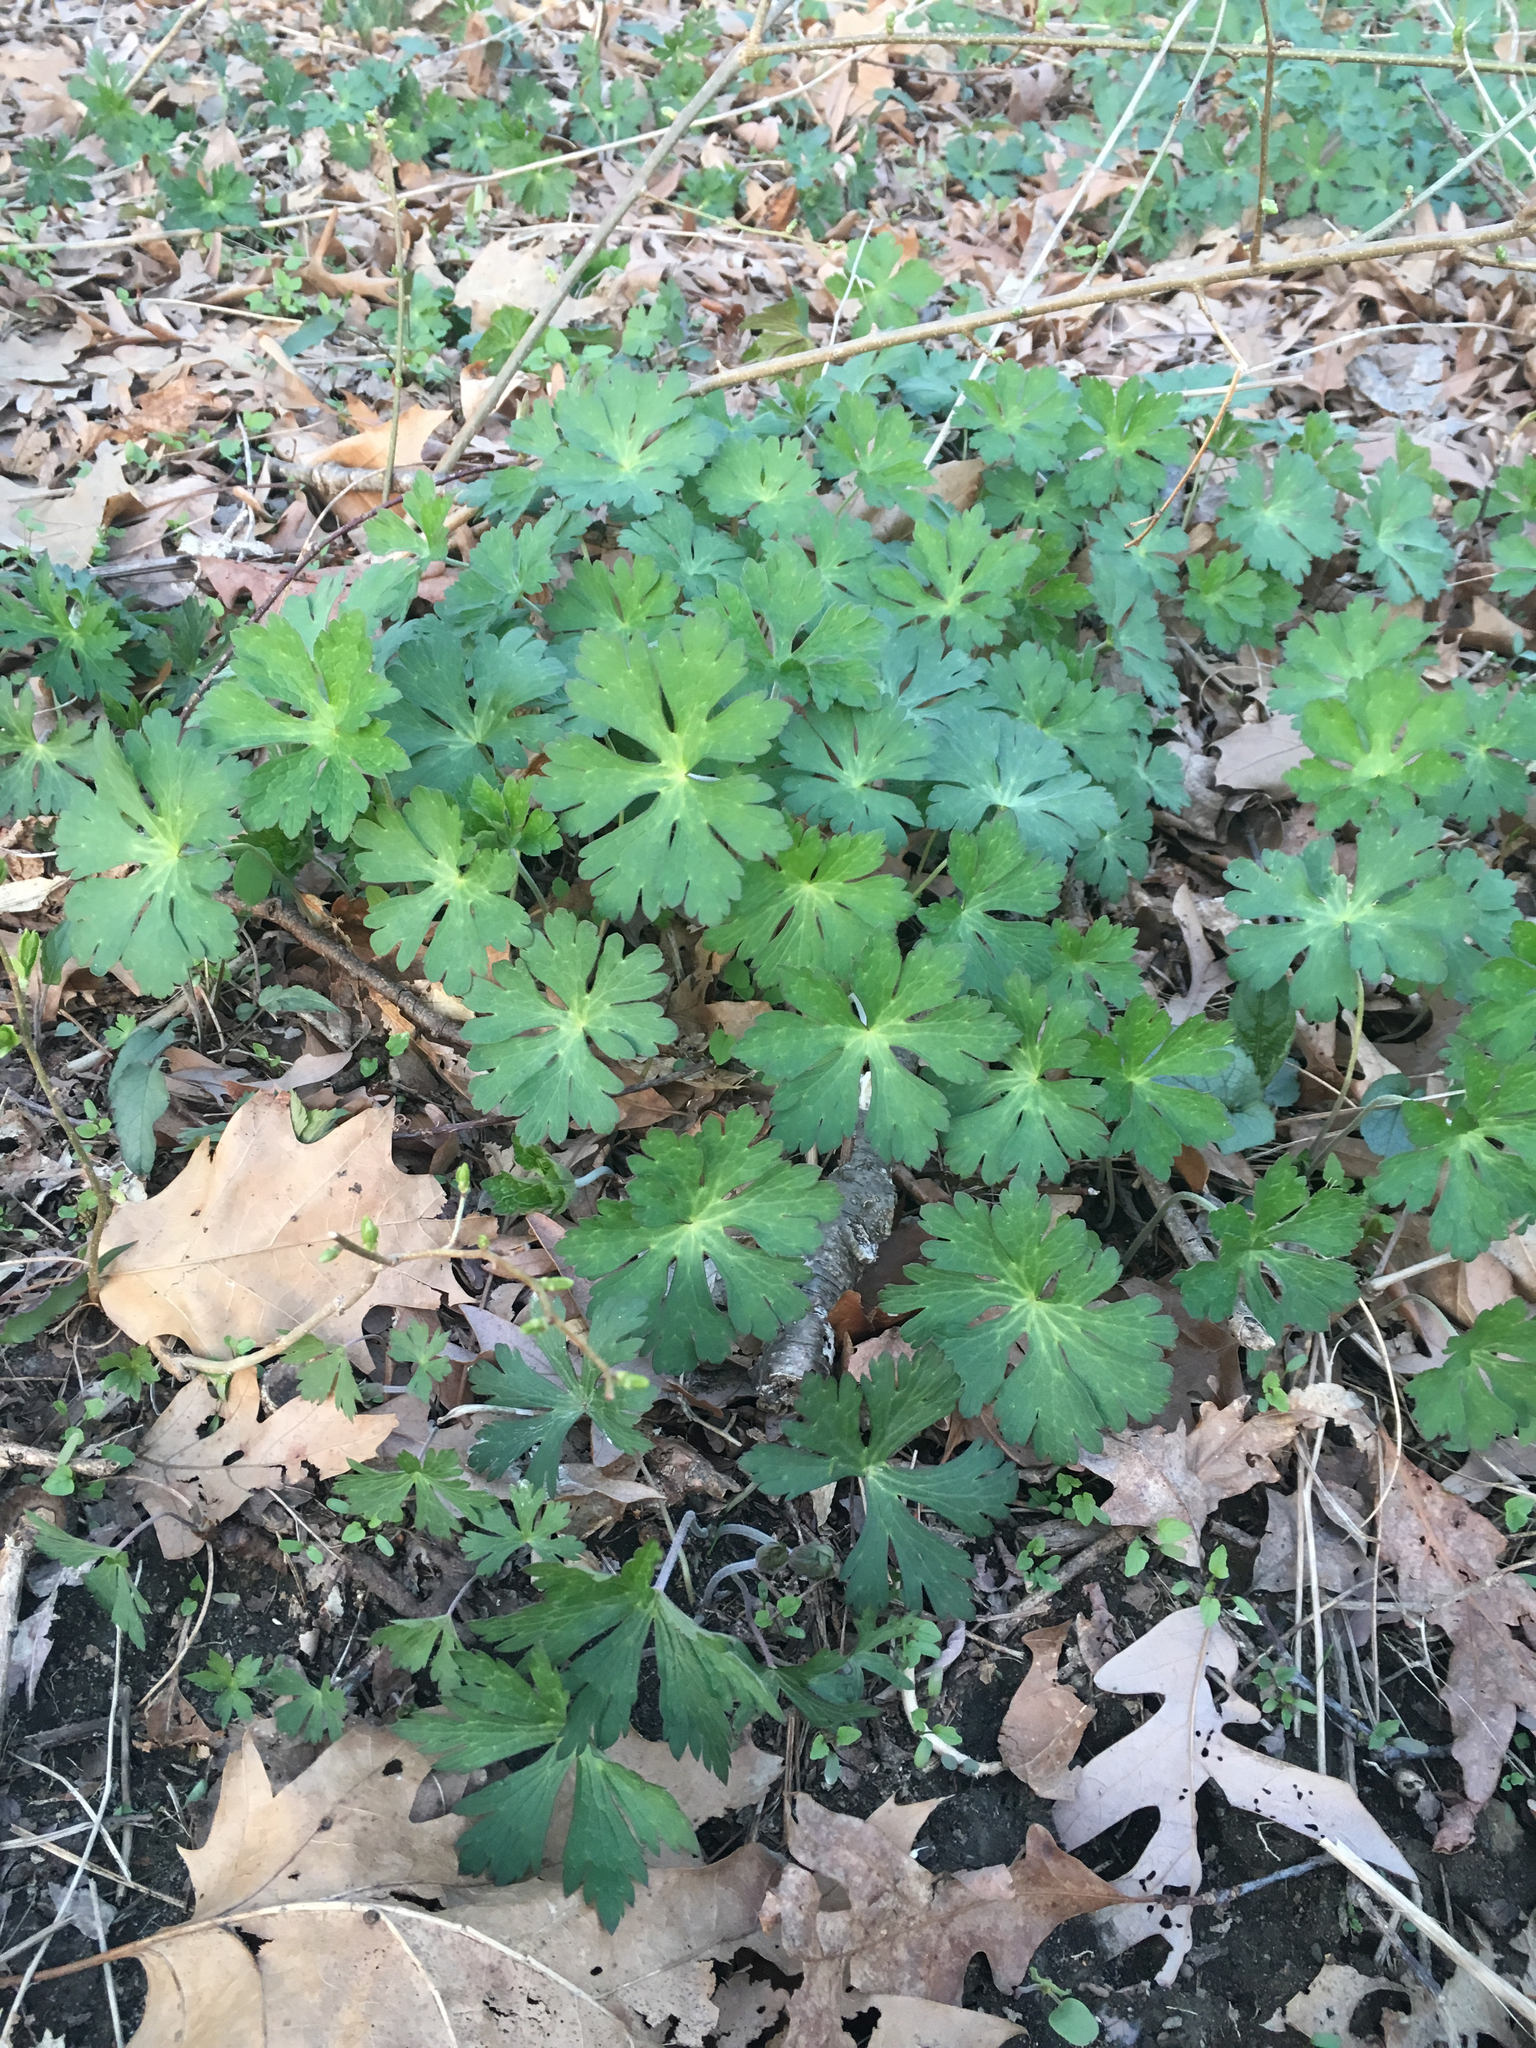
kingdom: Plantae
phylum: Tracheophyta
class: Magnoliopsida
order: Geraniales
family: Geraniaceae
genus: Geranium
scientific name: Geranium maculatum
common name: Spotted geranium
